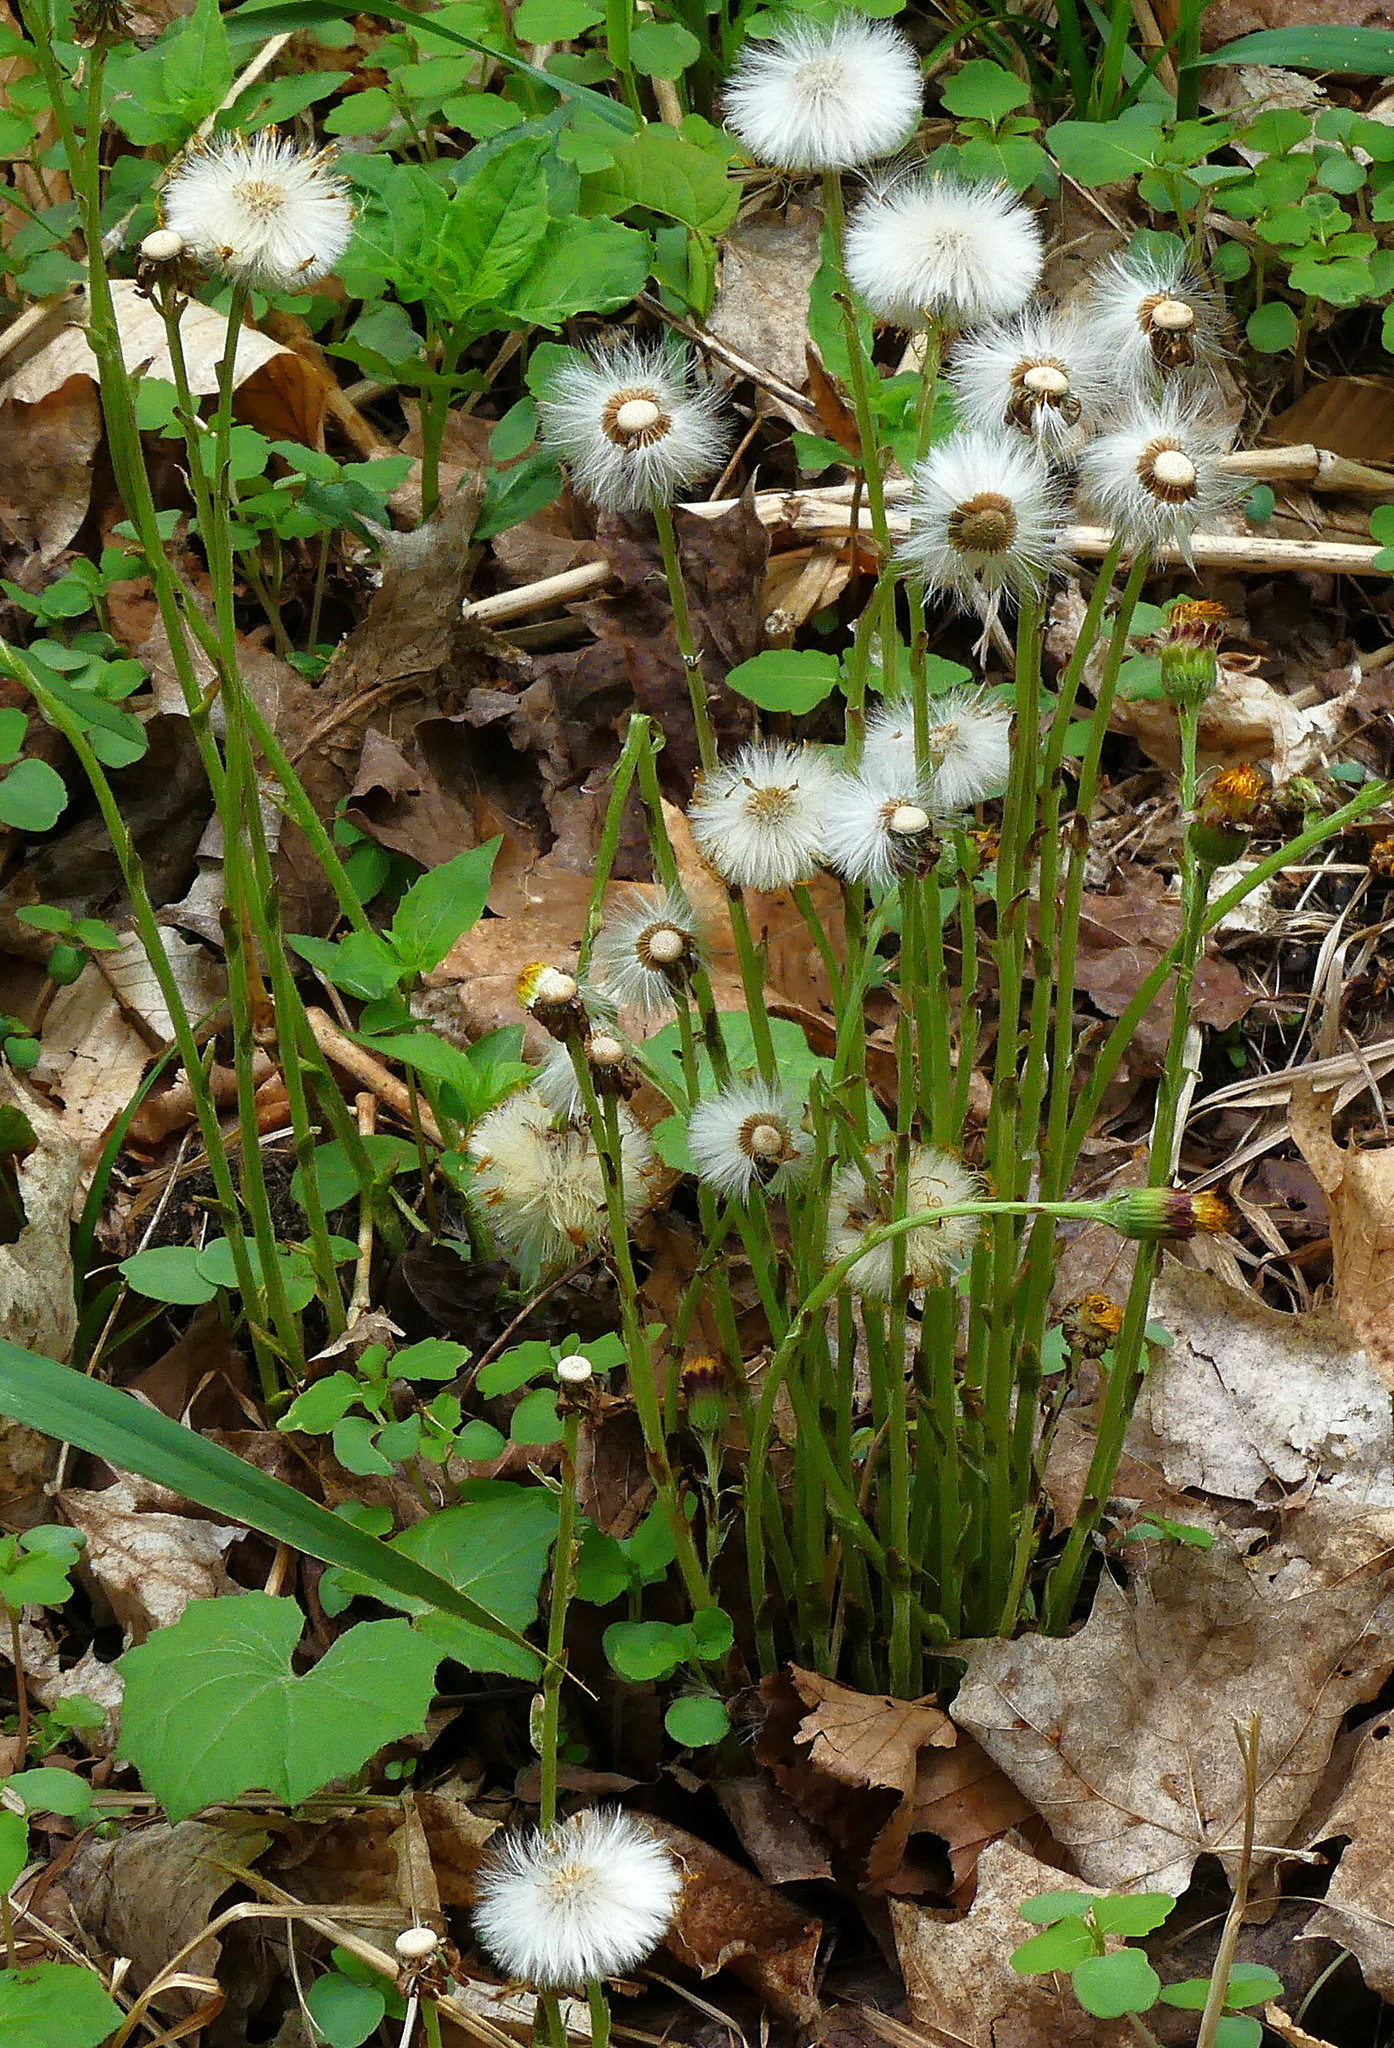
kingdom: Plantae
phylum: Tracheophyta
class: Magnoliopsida
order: Asterales
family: Asteraceae
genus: Tussilago
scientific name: Tussilago farfara
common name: Coltsfoot
